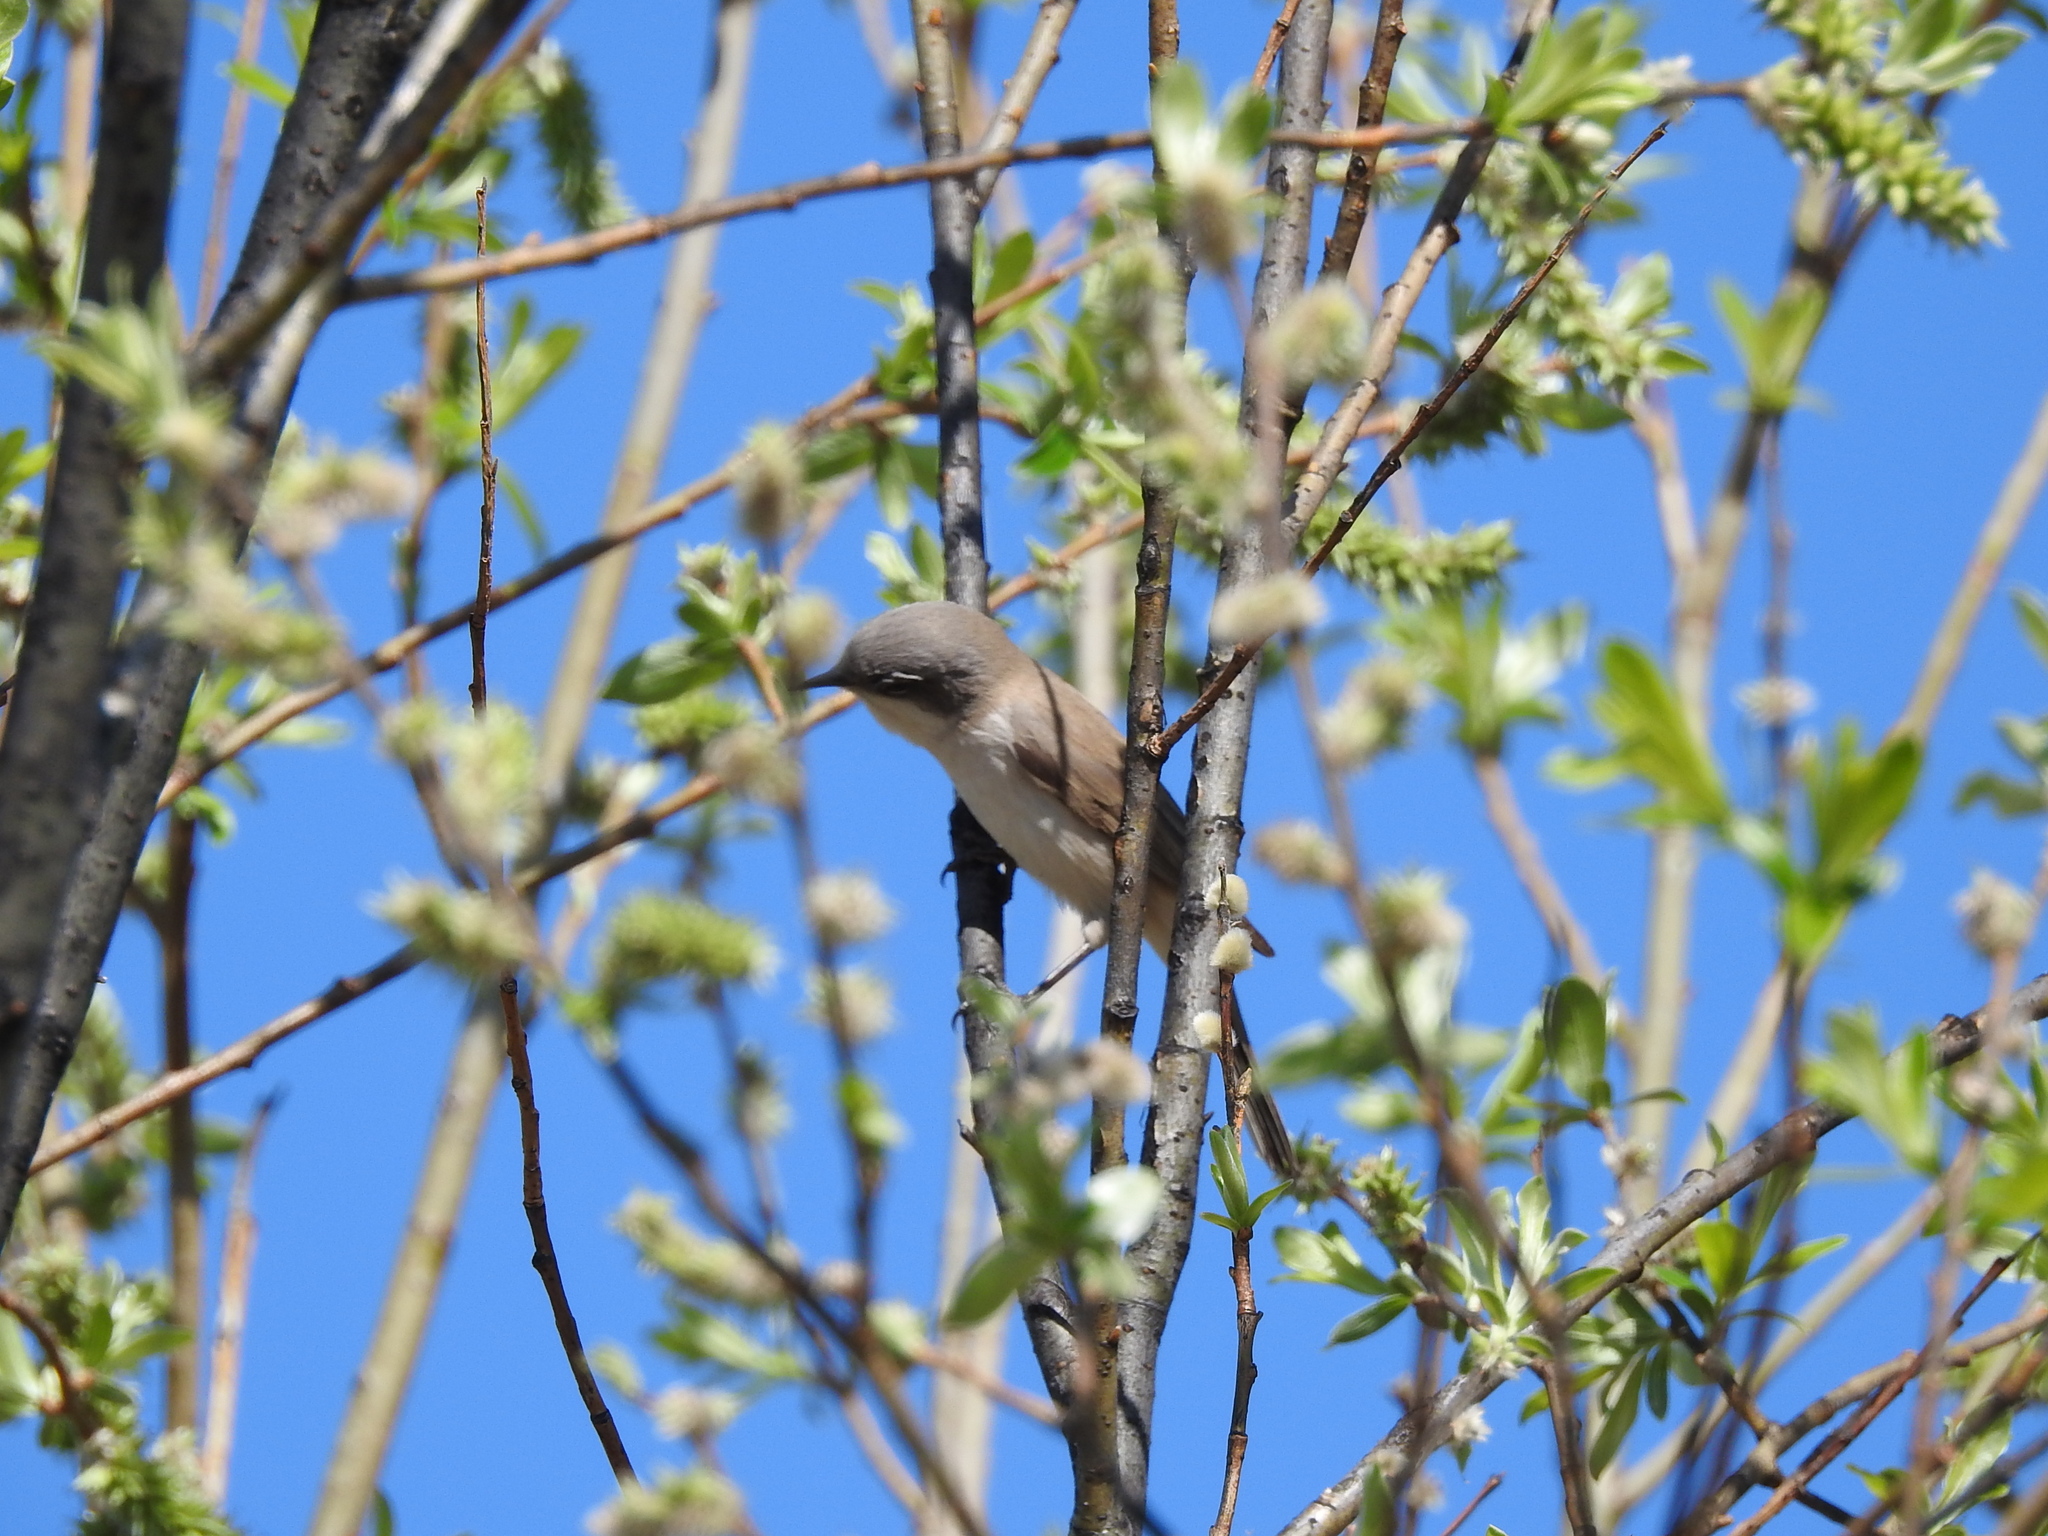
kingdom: Animalia
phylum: Chordata
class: Aves
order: Passeriformes
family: Sylviidae
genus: Sylvia
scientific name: Sylvia curruca
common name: Lesser whitethroat
